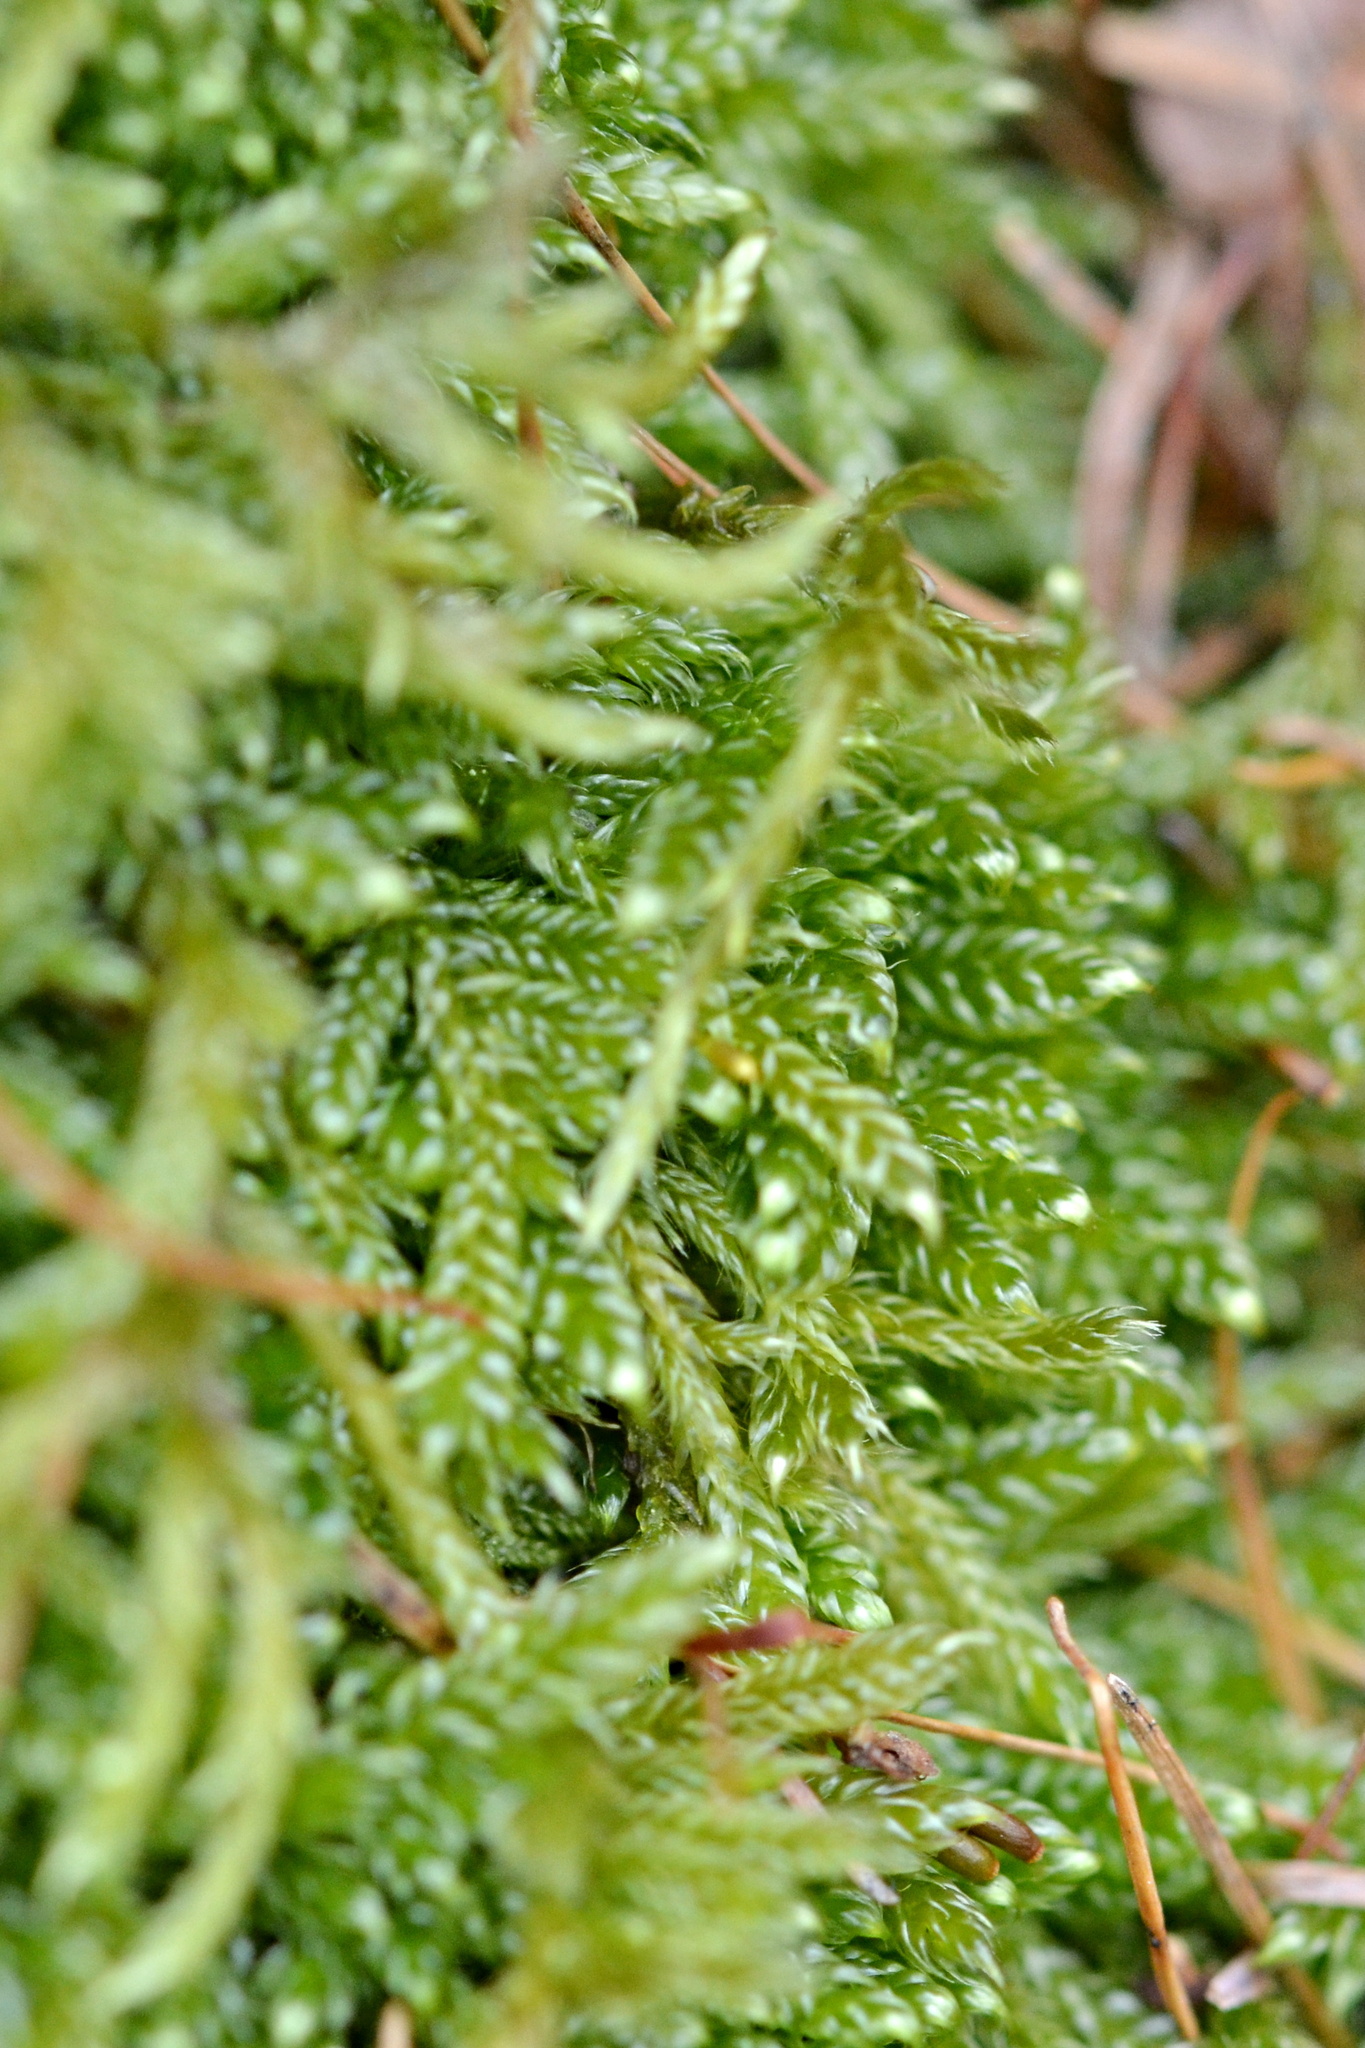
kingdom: Plantae
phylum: Bryophyta
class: Bryopsida
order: Hypnales
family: Hypnaceae
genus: Hypnum
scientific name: Hypnum cupressiforme
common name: Cypress-leaved plait-moss
